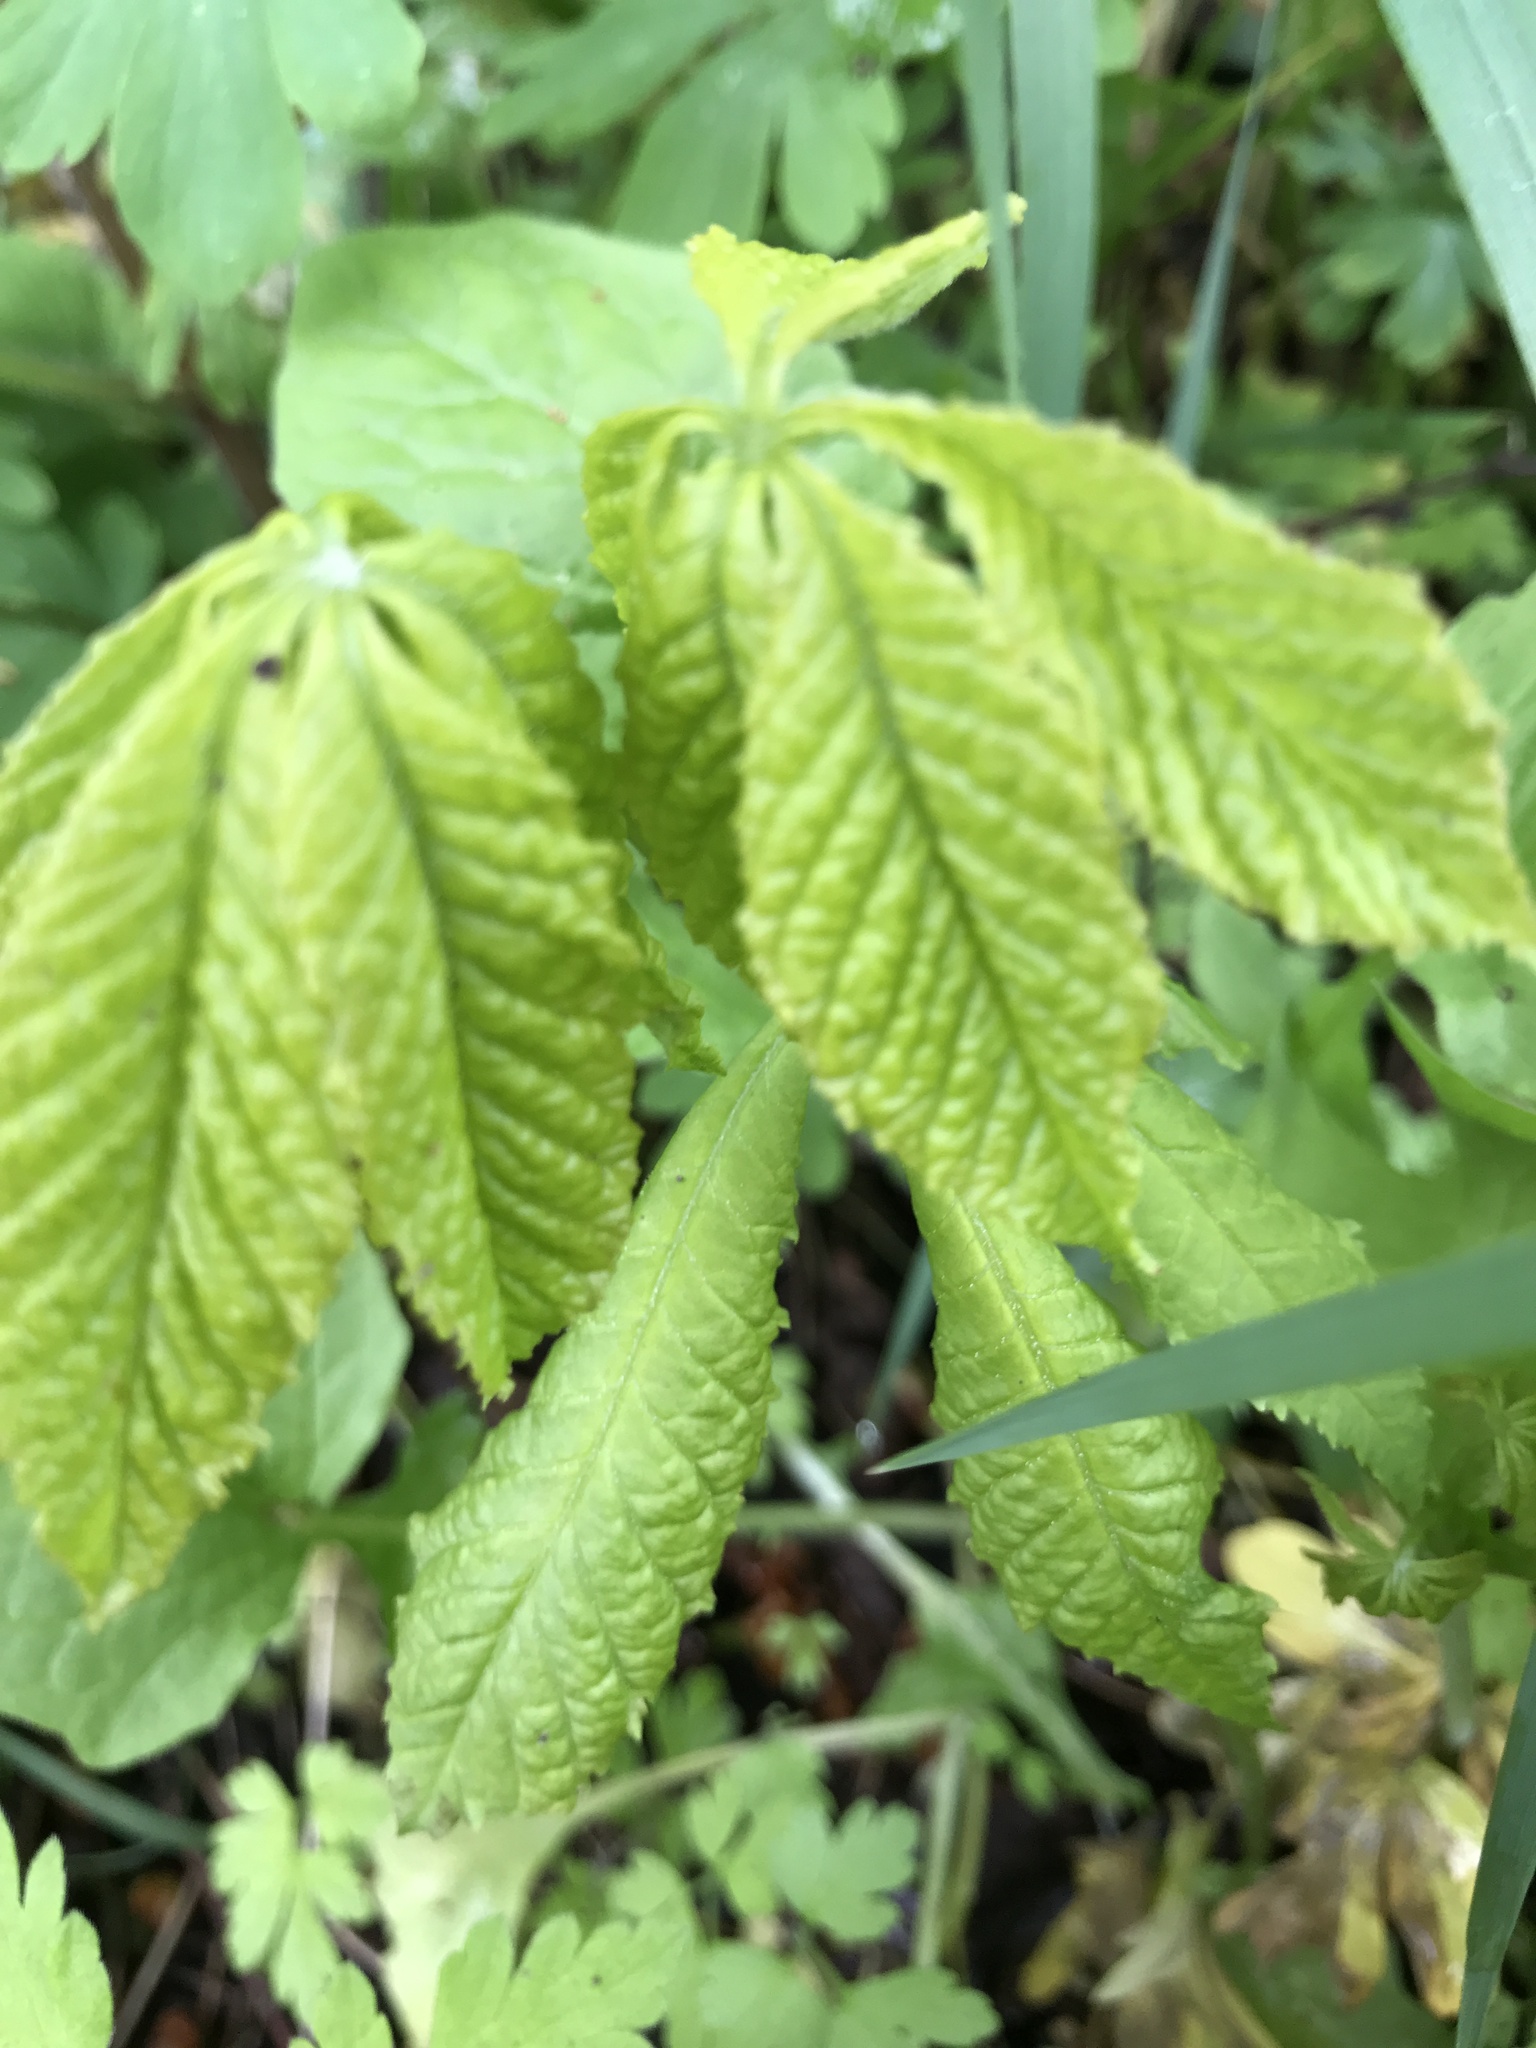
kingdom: Plantae
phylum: Tracheophyta
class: Magnoliopsida
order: Sapindales
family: Sapindaceae
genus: Aesculus
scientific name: Aesculus hippocastanum
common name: Horse-chestnut
